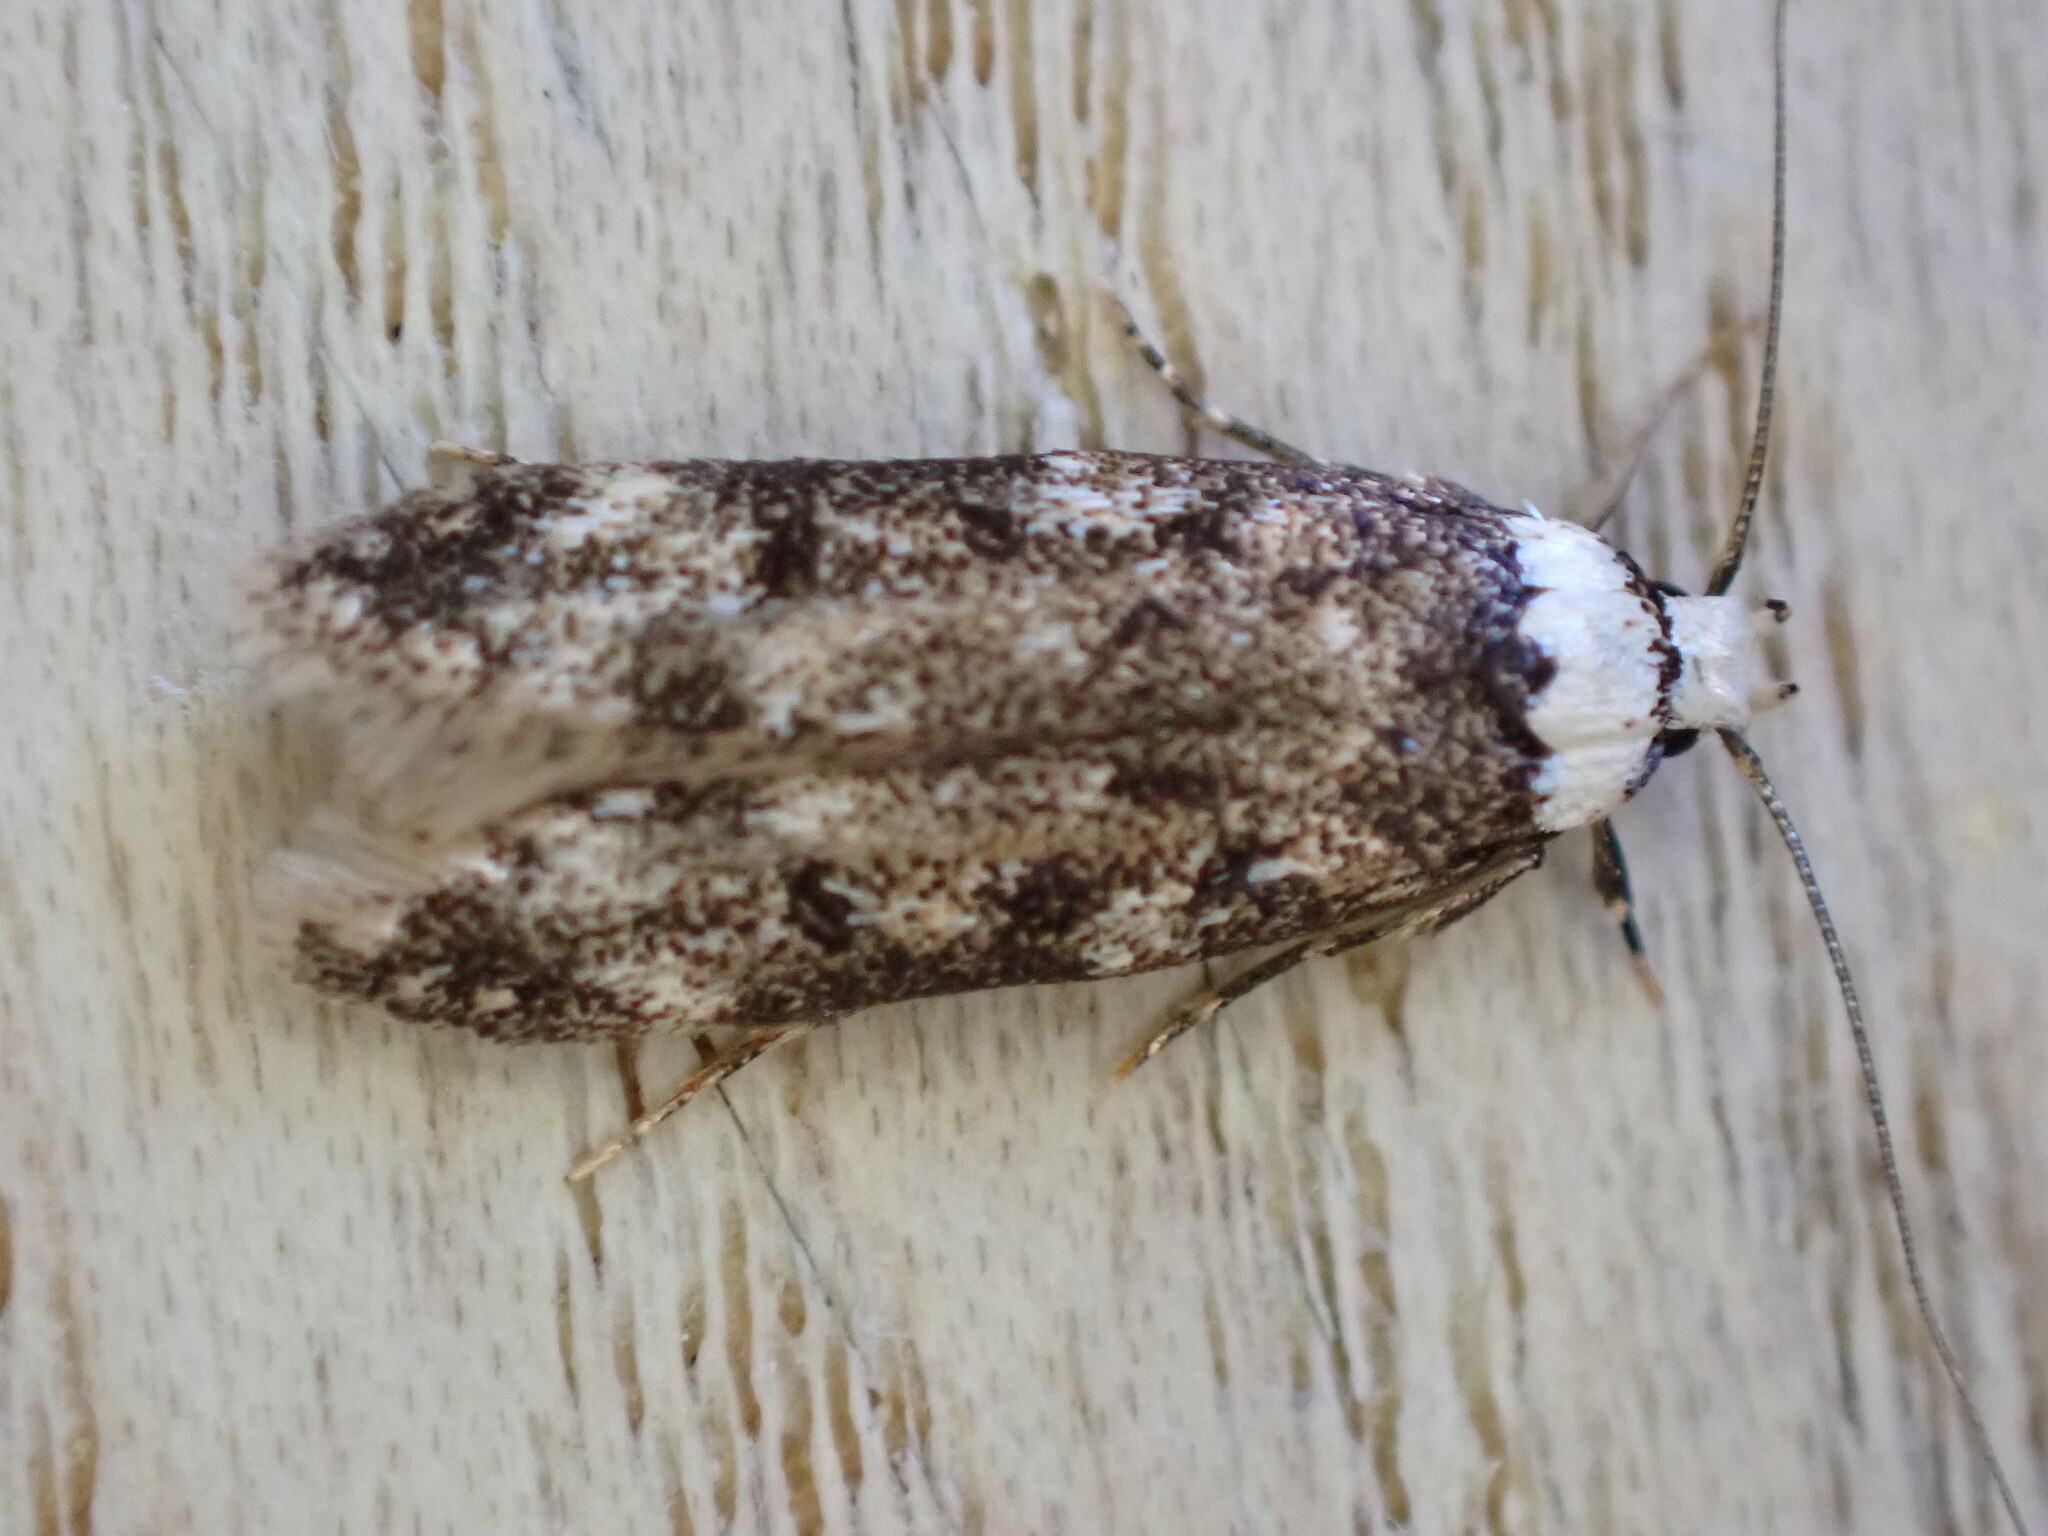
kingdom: Animalia
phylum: Arthropoda
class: Insecta
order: Lepidoptera
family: Oecophoridae
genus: Endrosis
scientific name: Endrosis sarcitrella
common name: White-shouldered house moth
